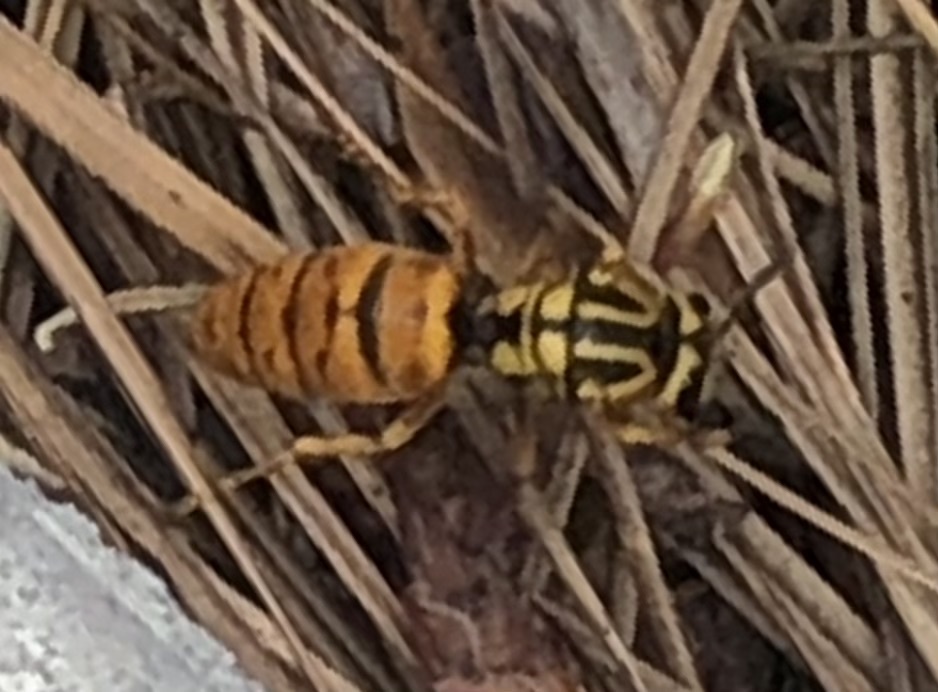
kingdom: Animalia
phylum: Arthropoda
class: Insecta
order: Hymenoptera
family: Vespidae
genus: Vespula
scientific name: Vespula squamosa
